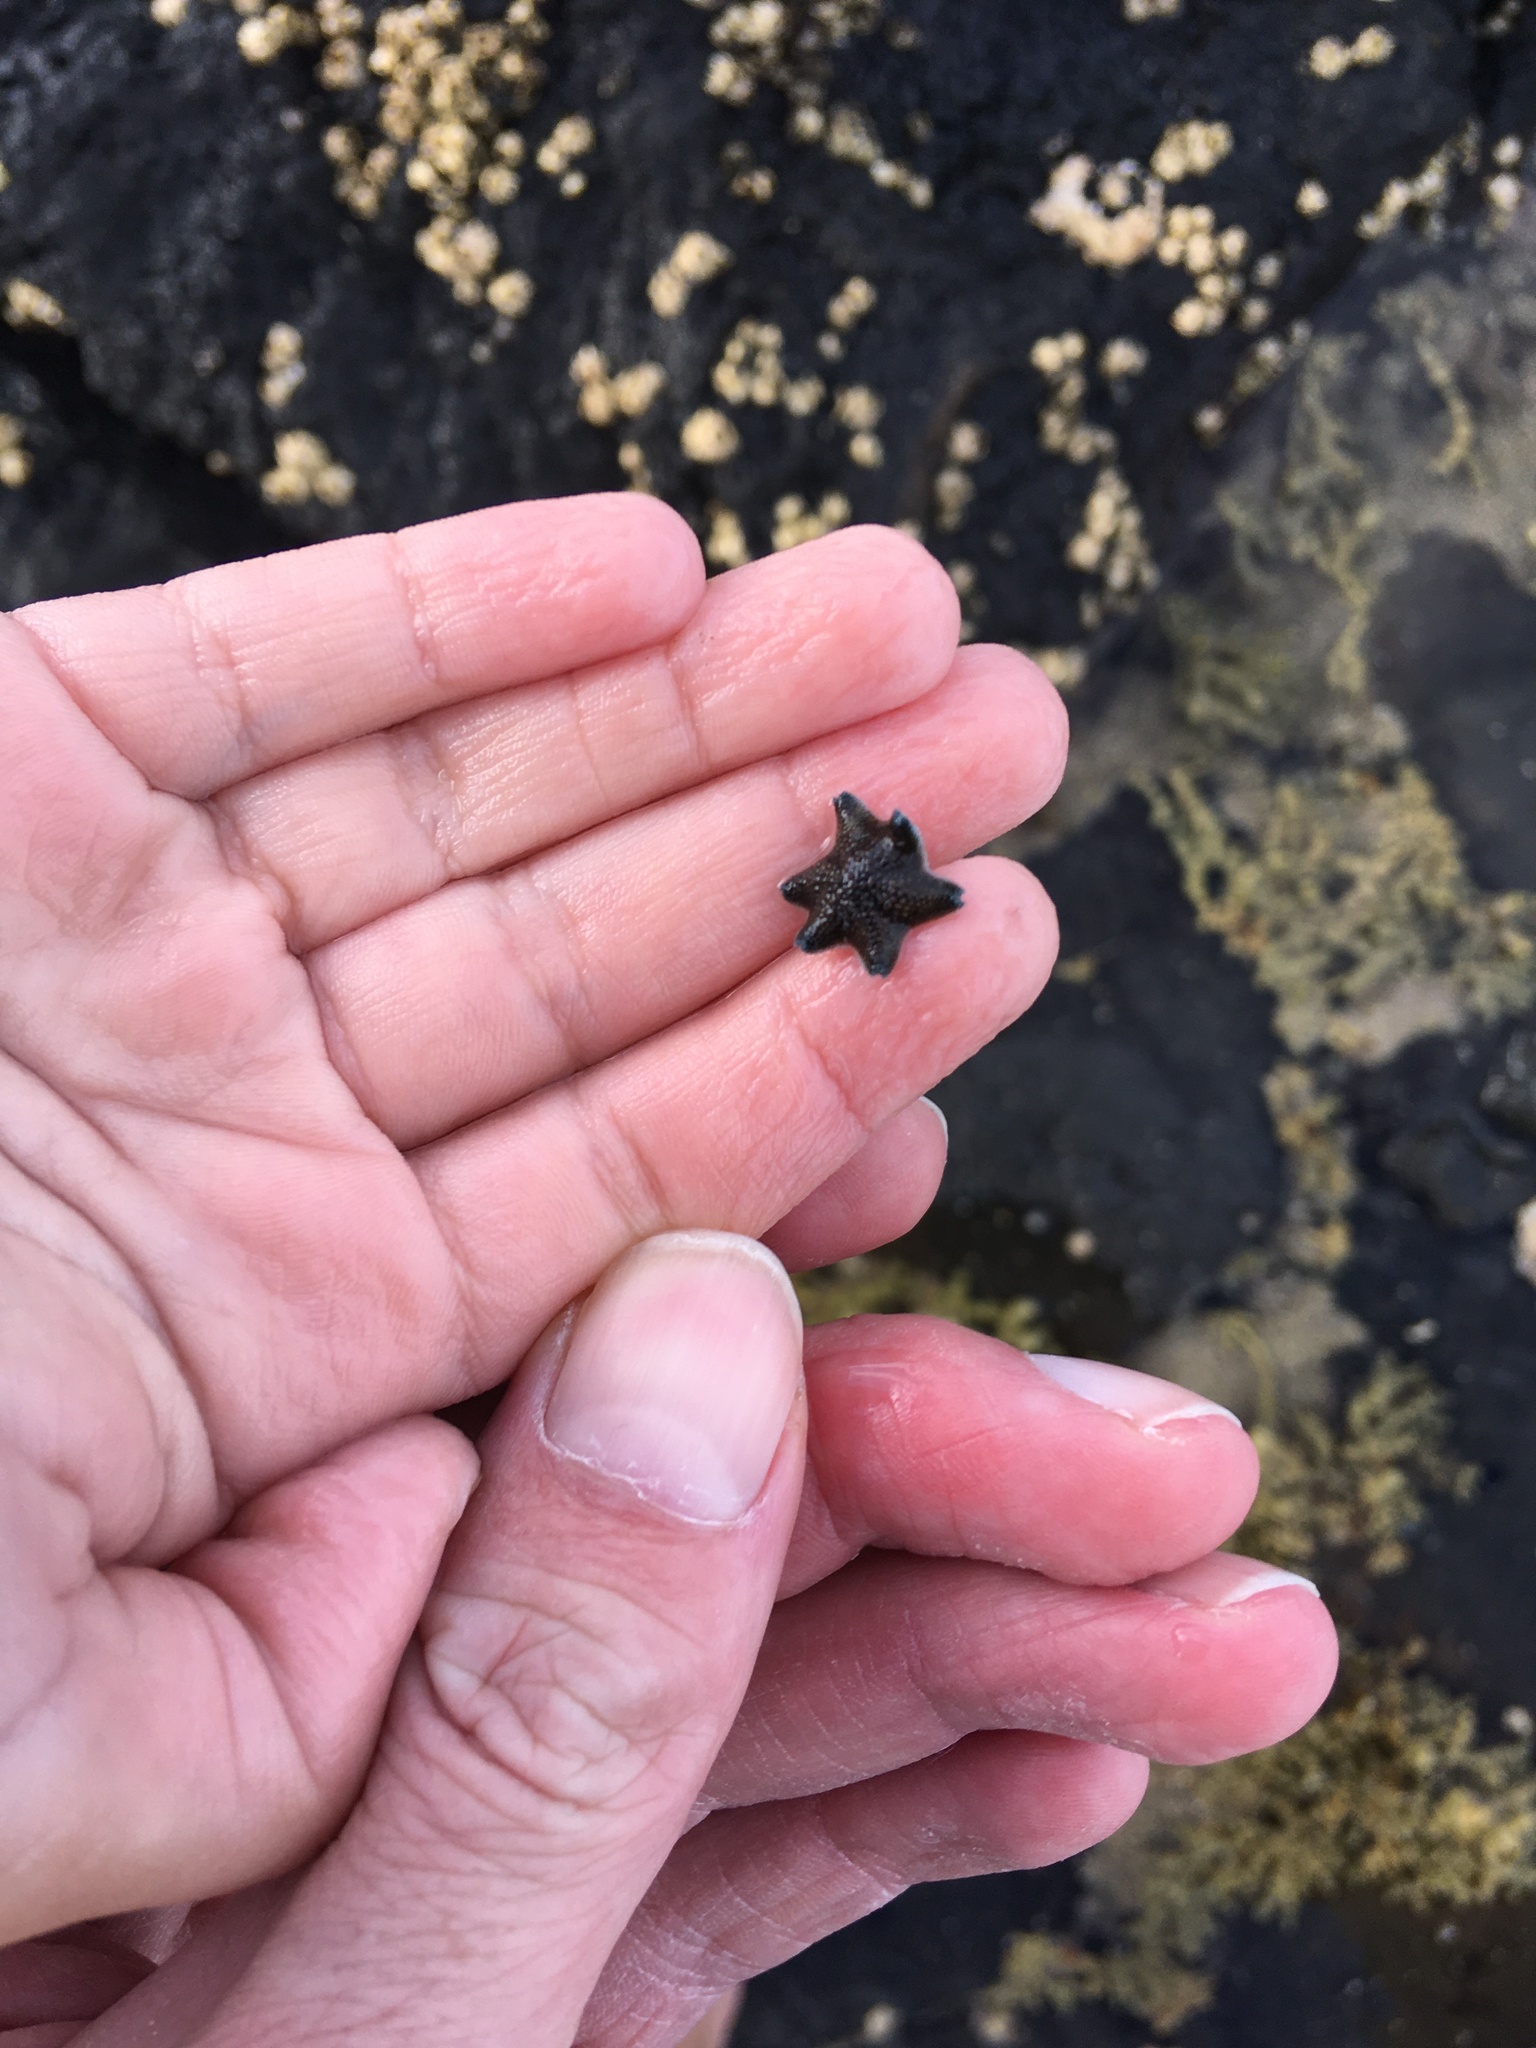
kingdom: Animalia
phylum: Echinodermata
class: Asteroidea
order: Valvatida
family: Asterinidae
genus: Patiriella
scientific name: Patiriella regularis
